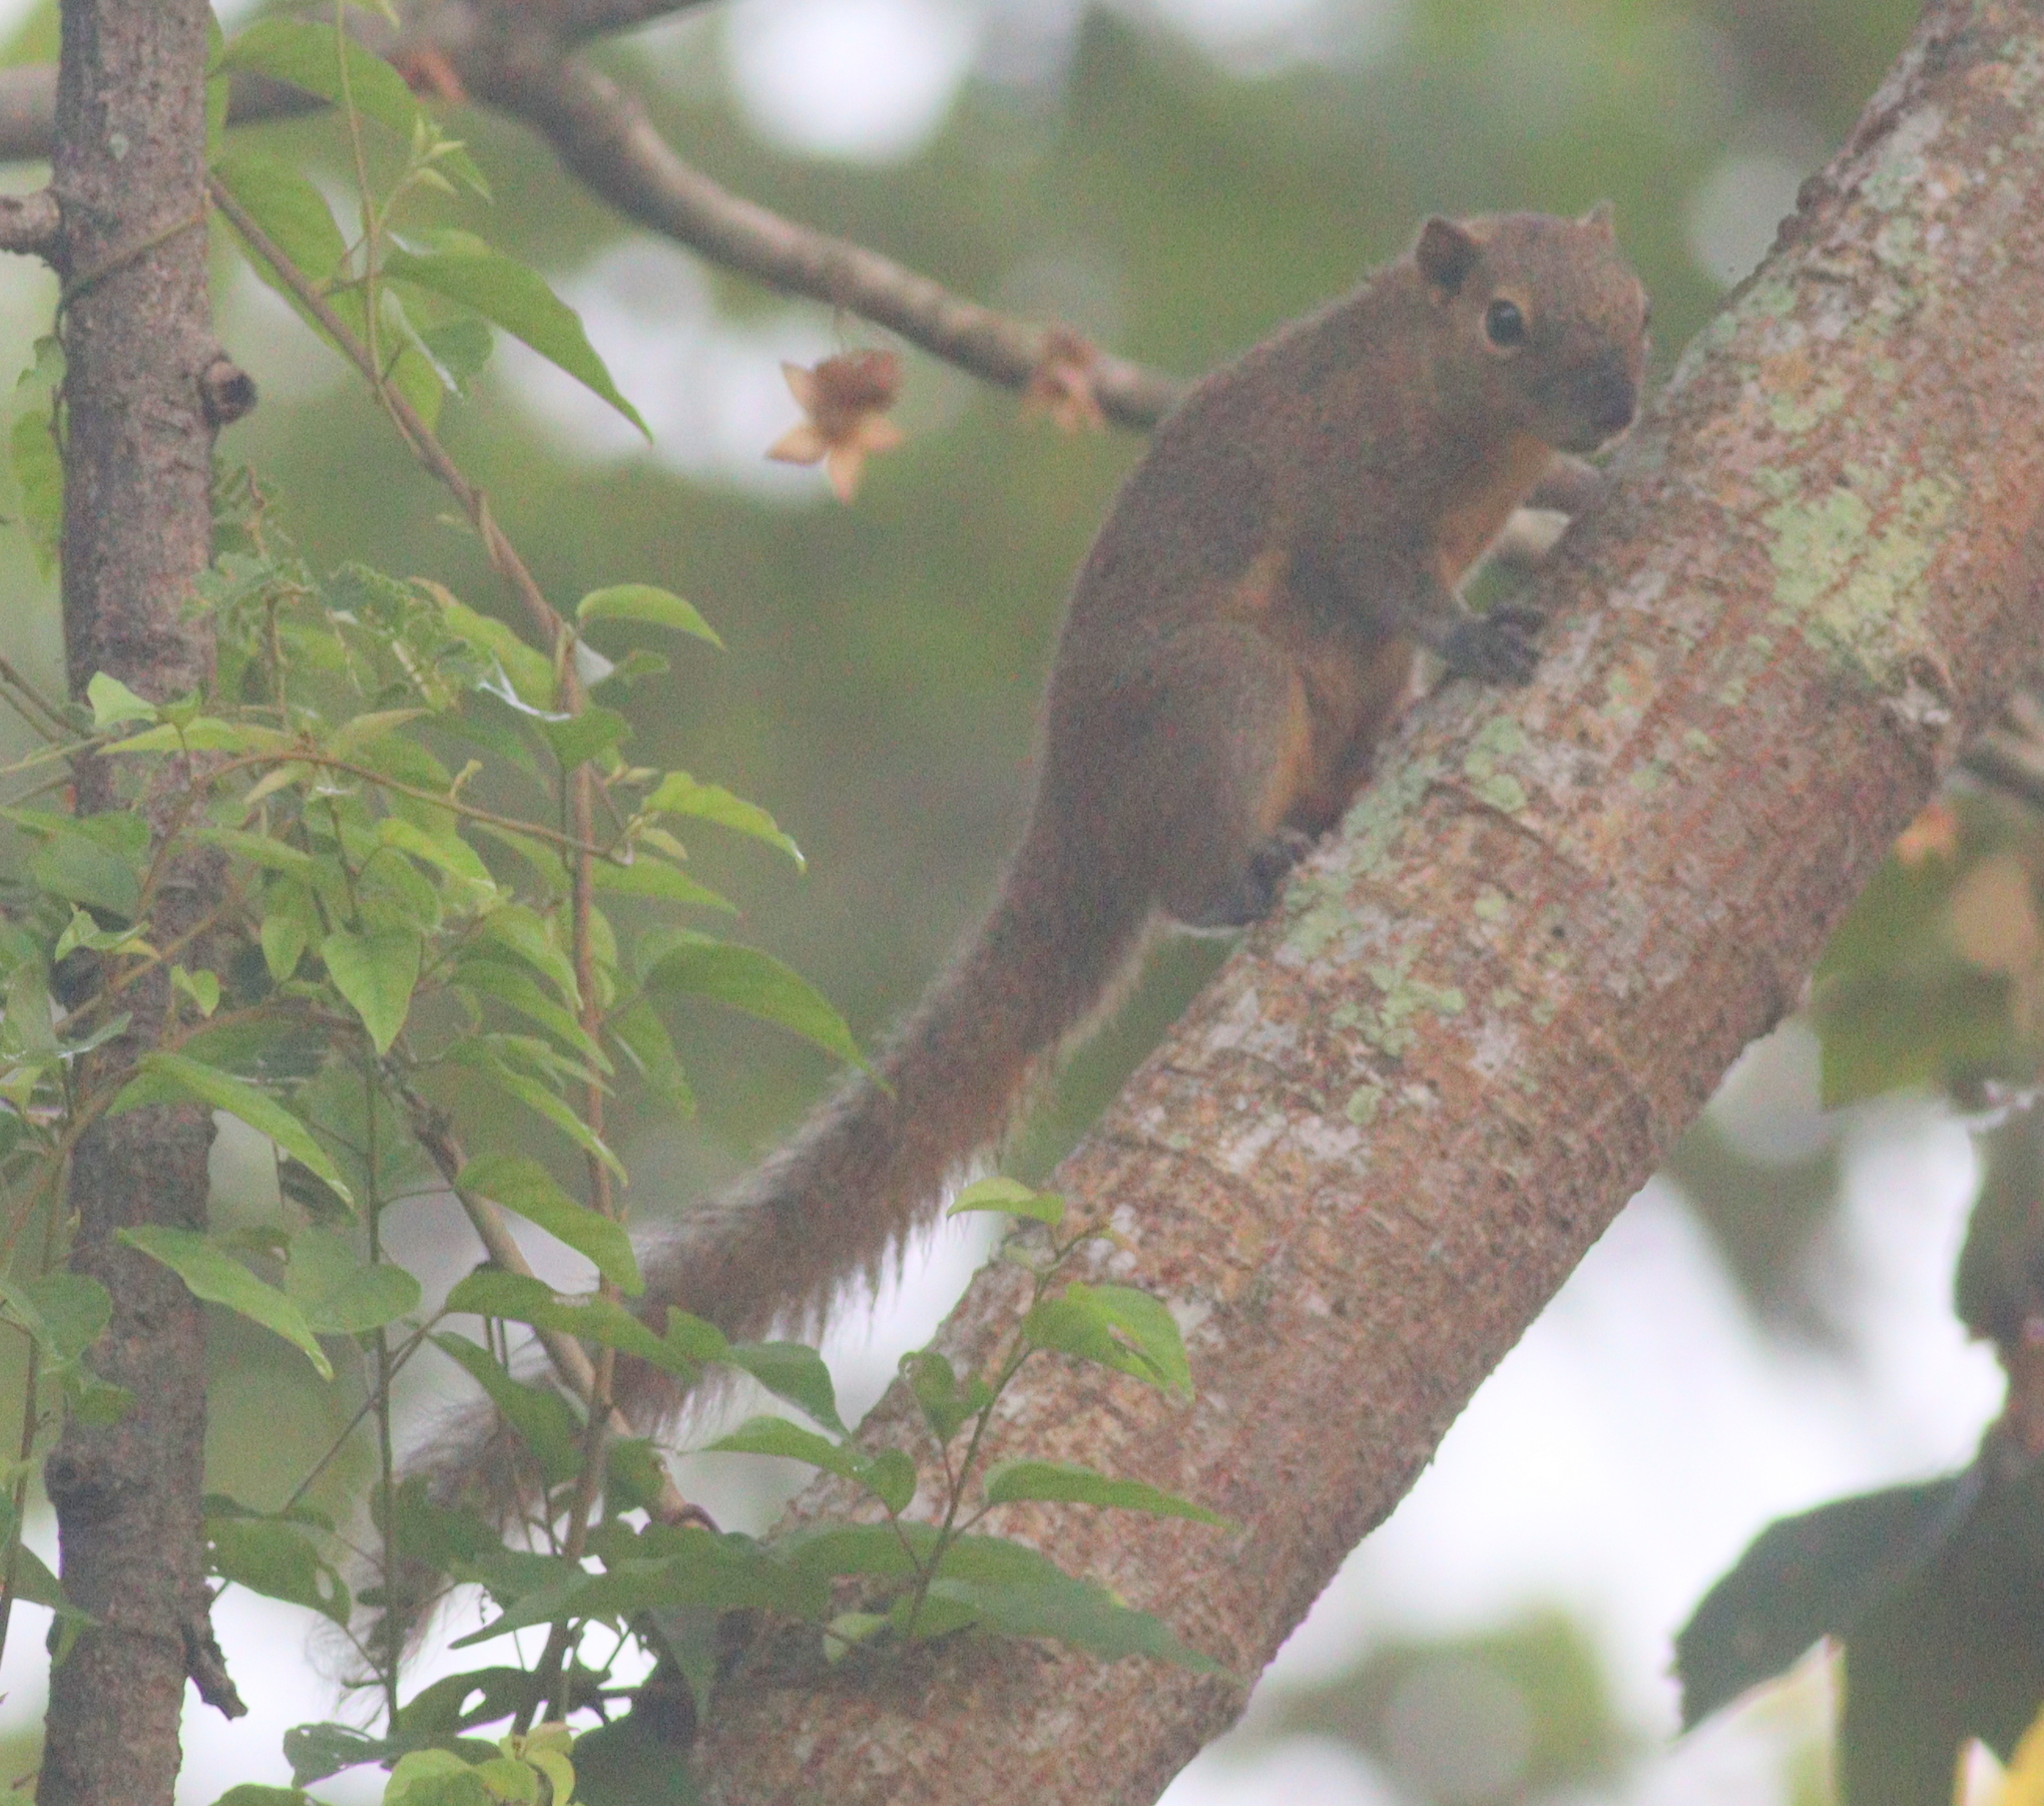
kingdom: Animalia
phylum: Chordata
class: Mammalia
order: Rodentia
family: Sciuridae
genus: Callosciurus
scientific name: Callosciurus notatus
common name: Plantain squirrel
